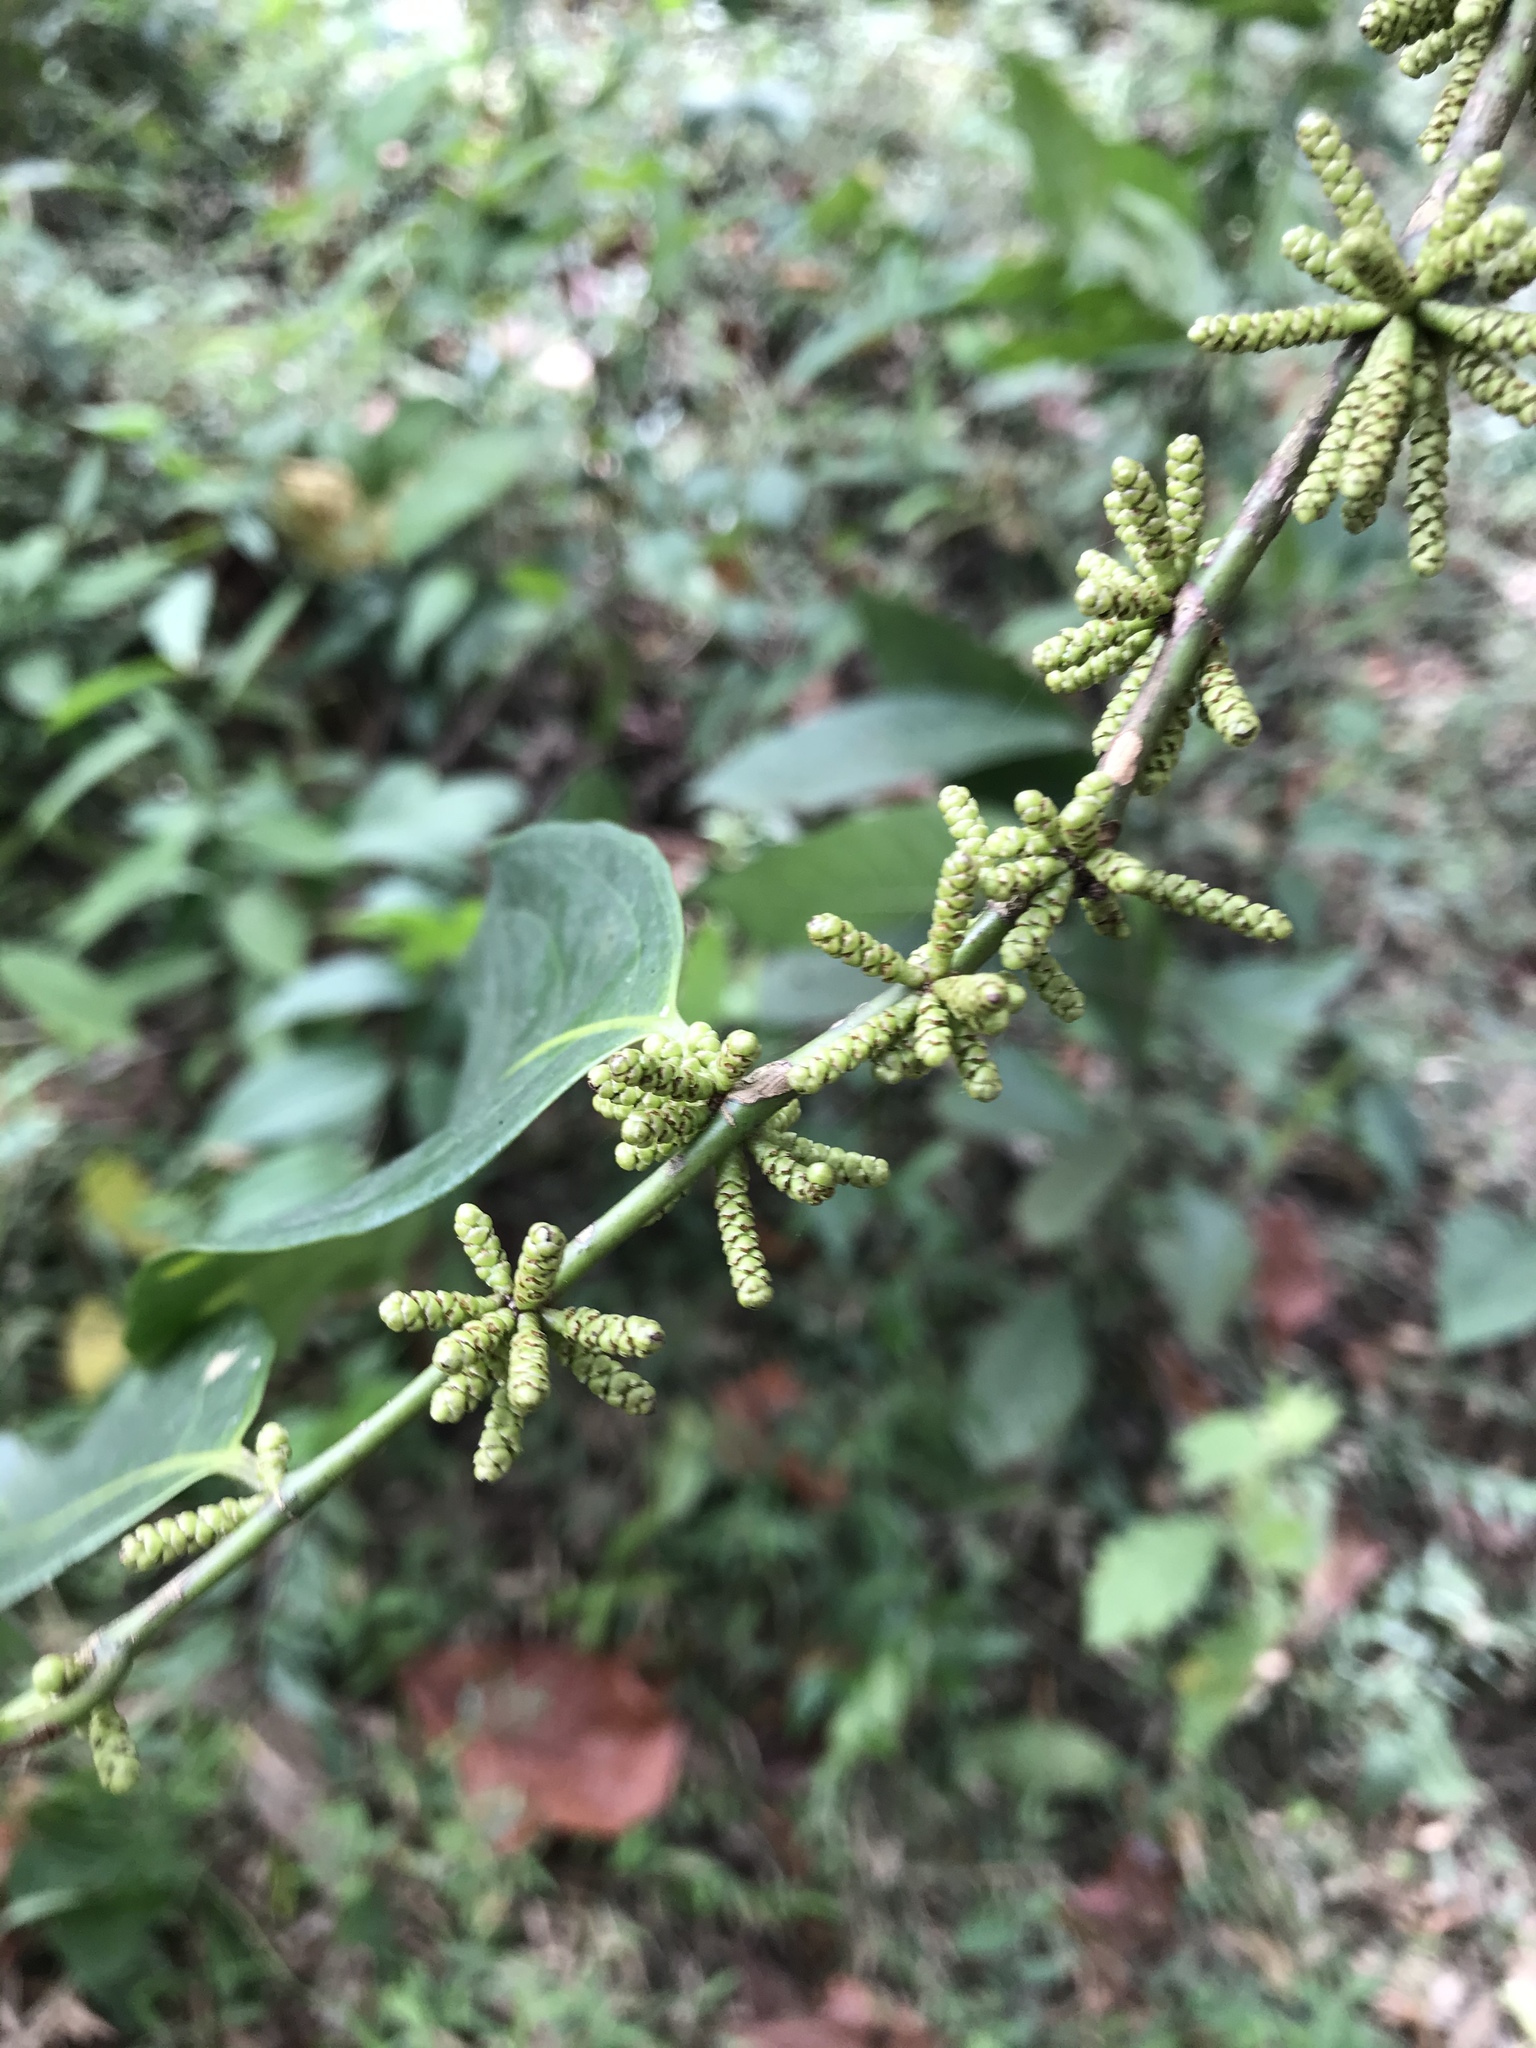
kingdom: Plantae
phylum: Tracheophyta
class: Magnoliopsida
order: Malpighiales
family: Lacistemataceae
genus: Lacistema
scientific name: Lacistema aggregatum
